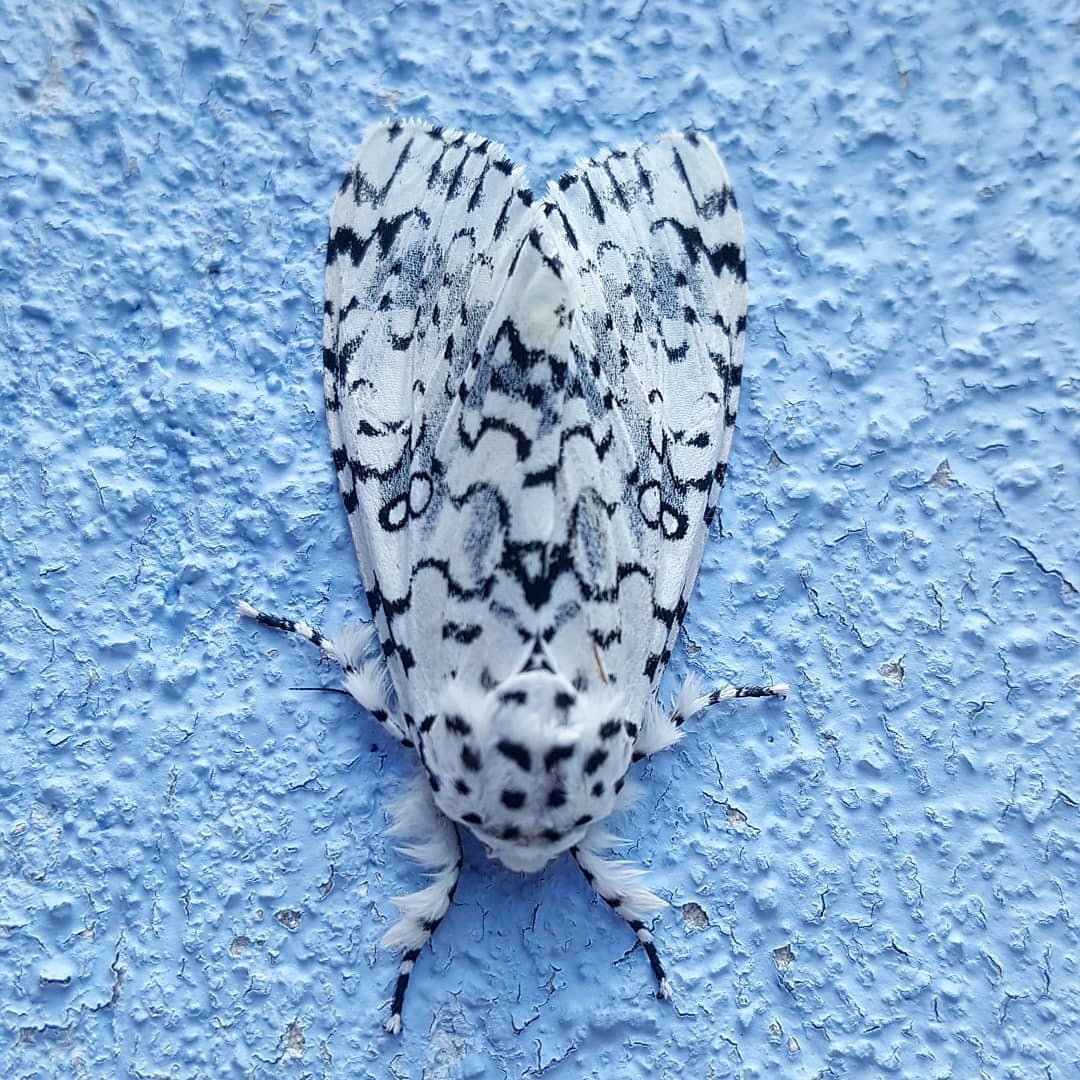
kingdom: Animalia
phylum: Arthropoda
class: Insecta
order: Lepidoptera
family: Noctuidae
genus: Lichnoptera
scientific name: Lichnoptera decora
